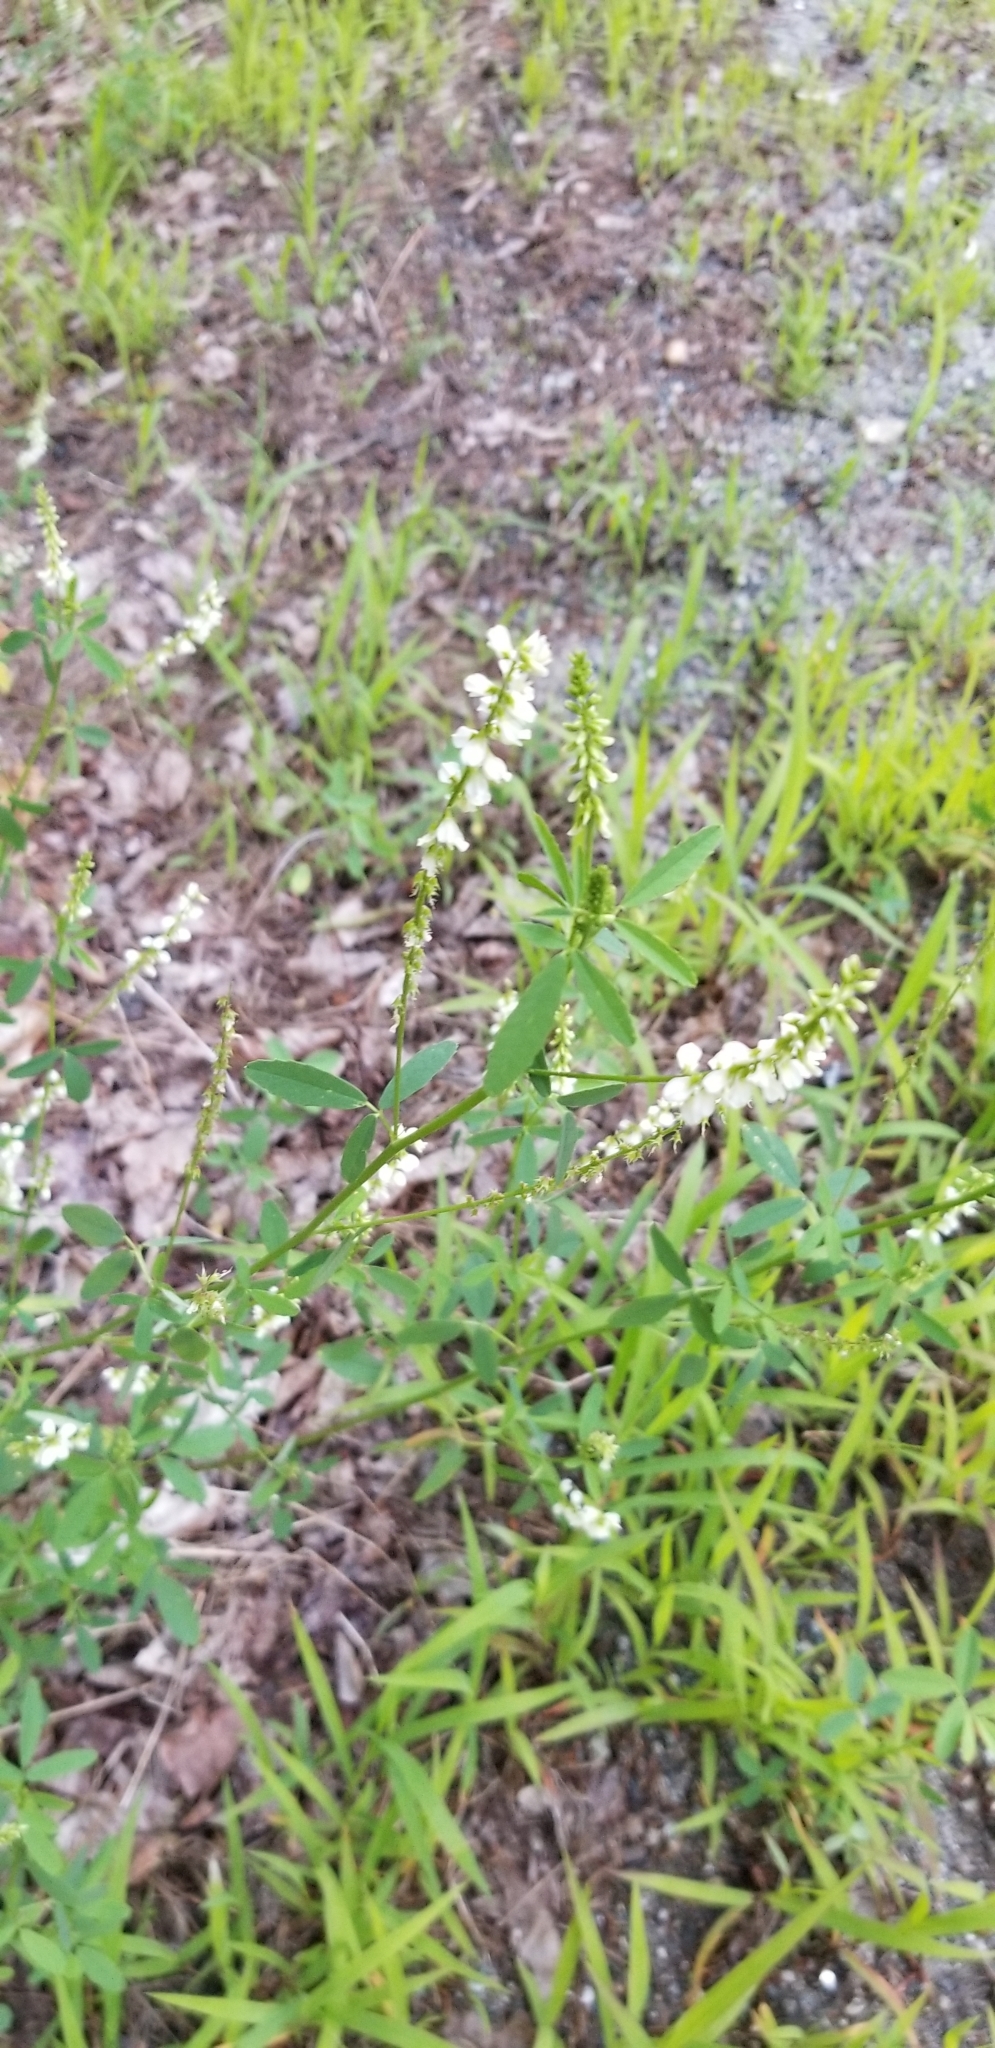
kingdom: Plantae
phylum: Tracheophyta
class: Magnoliopsida
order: Fabales
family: Fabaceae
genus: Melilotus
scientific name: Melilotus albus
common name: White melilot
